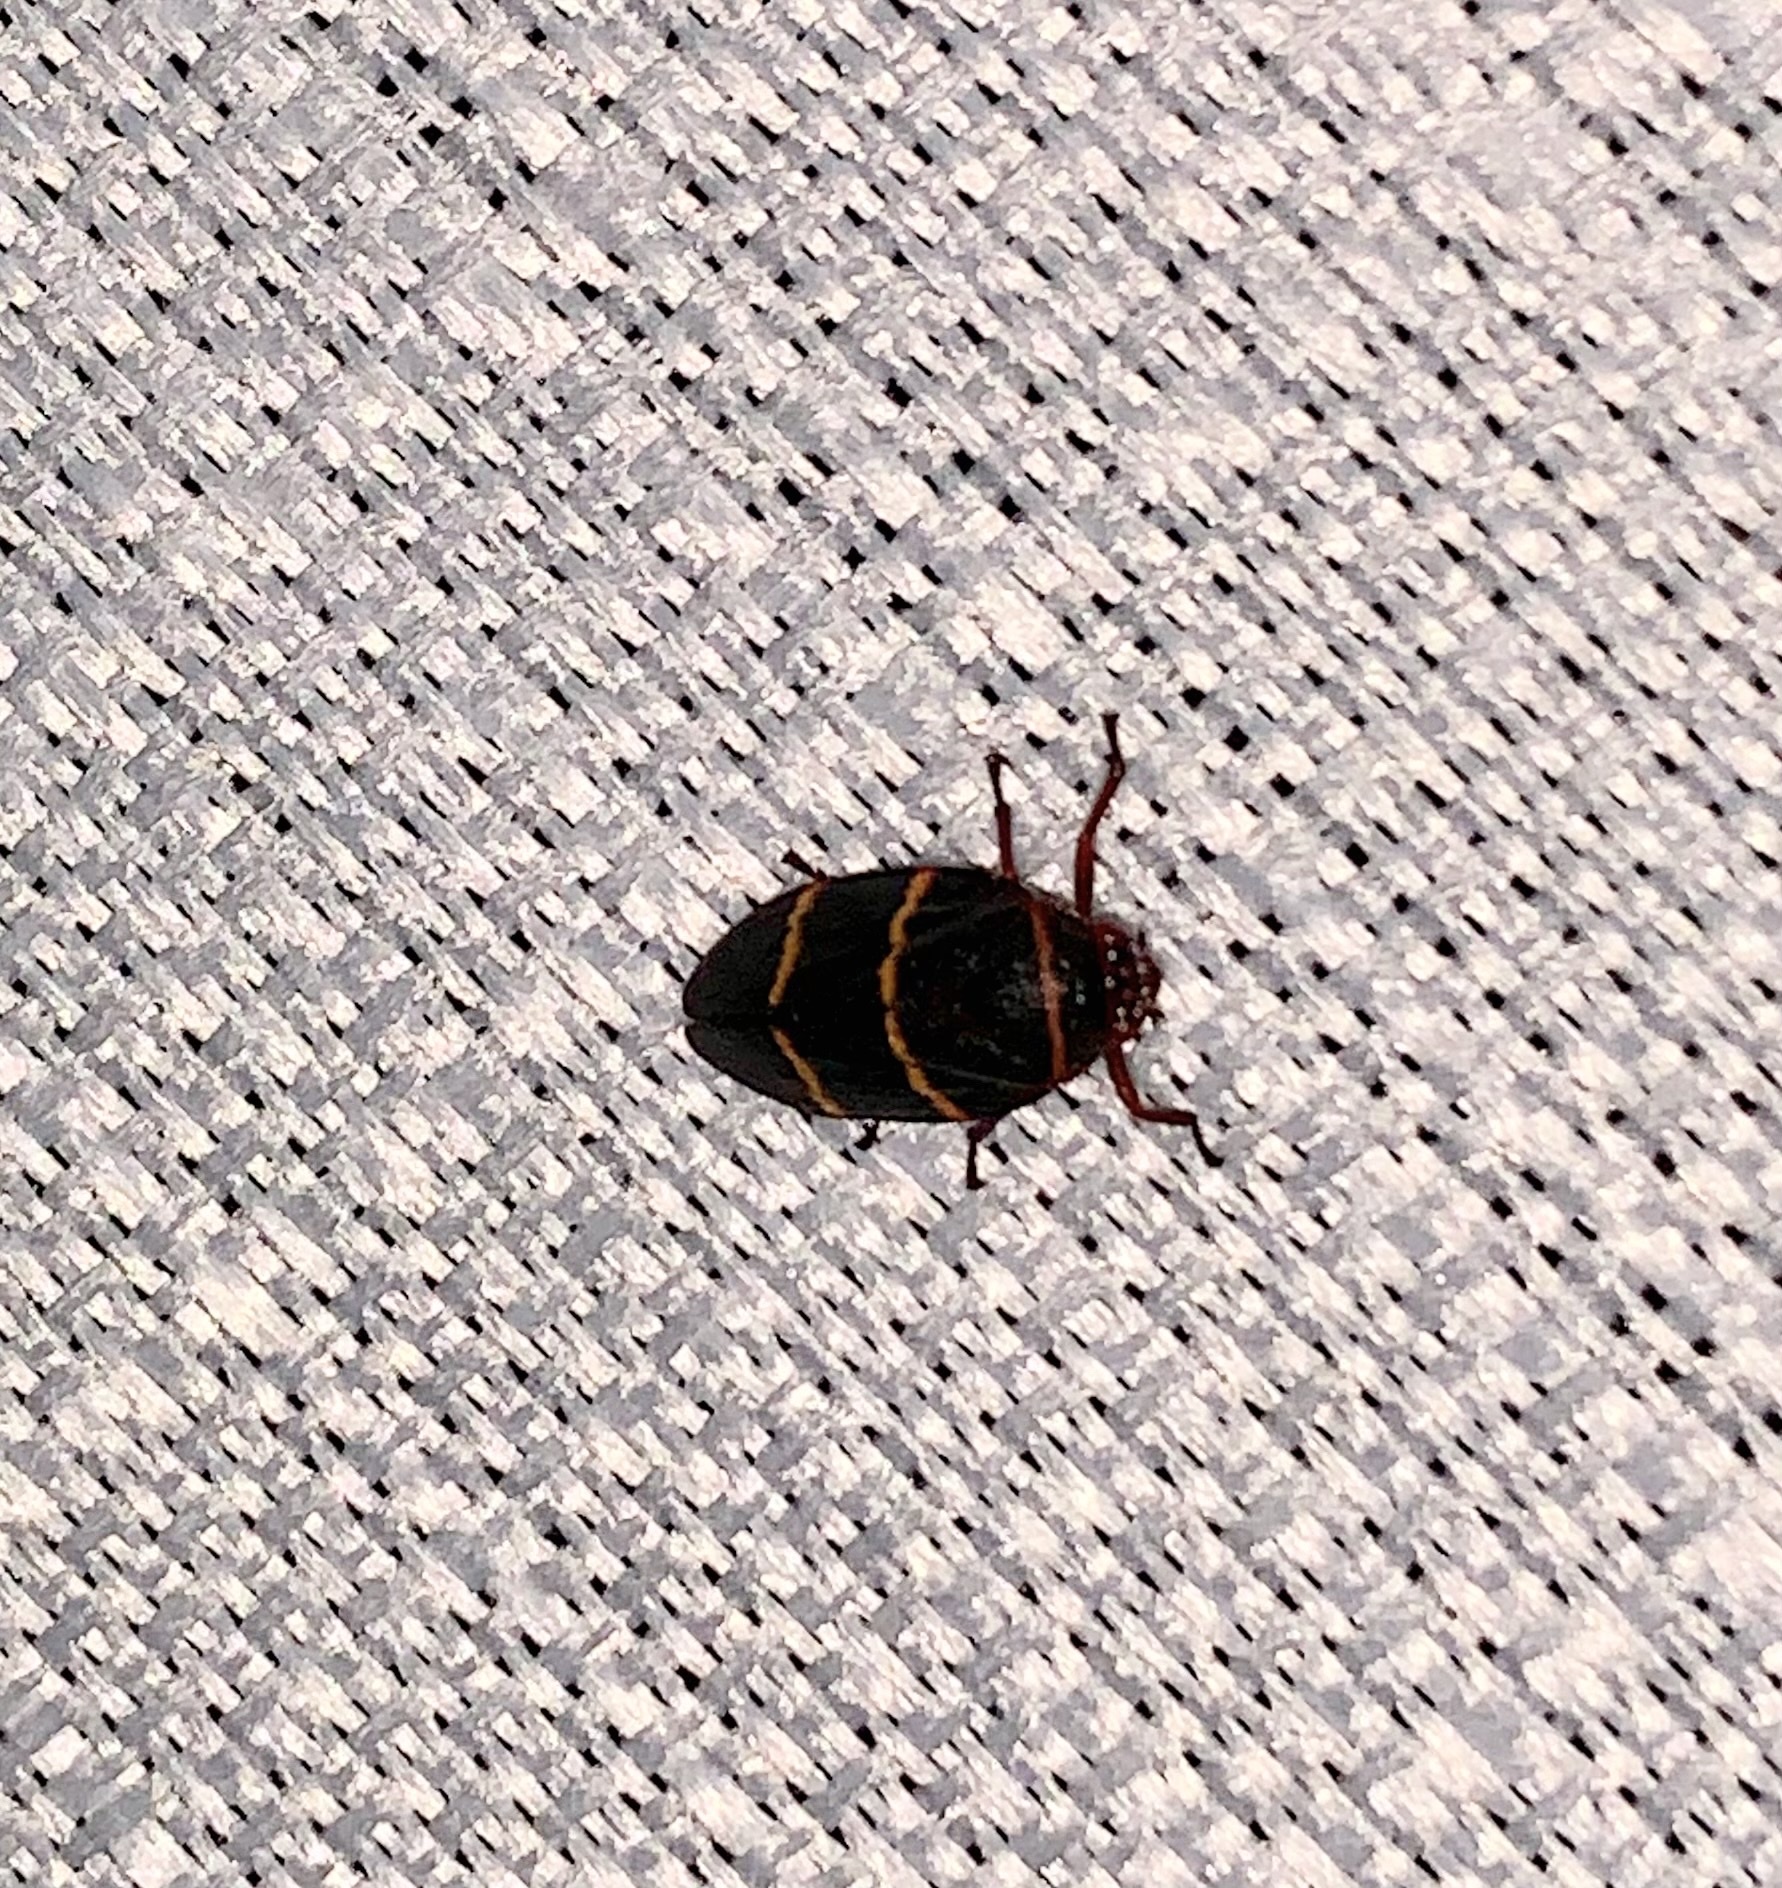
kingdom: Animalia
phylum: Arthropoda
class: Insecta
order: Hemiptera
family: Cercopidae
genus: Prosapia
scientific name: Prosapia bicincta
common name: Twolined spittlebug
